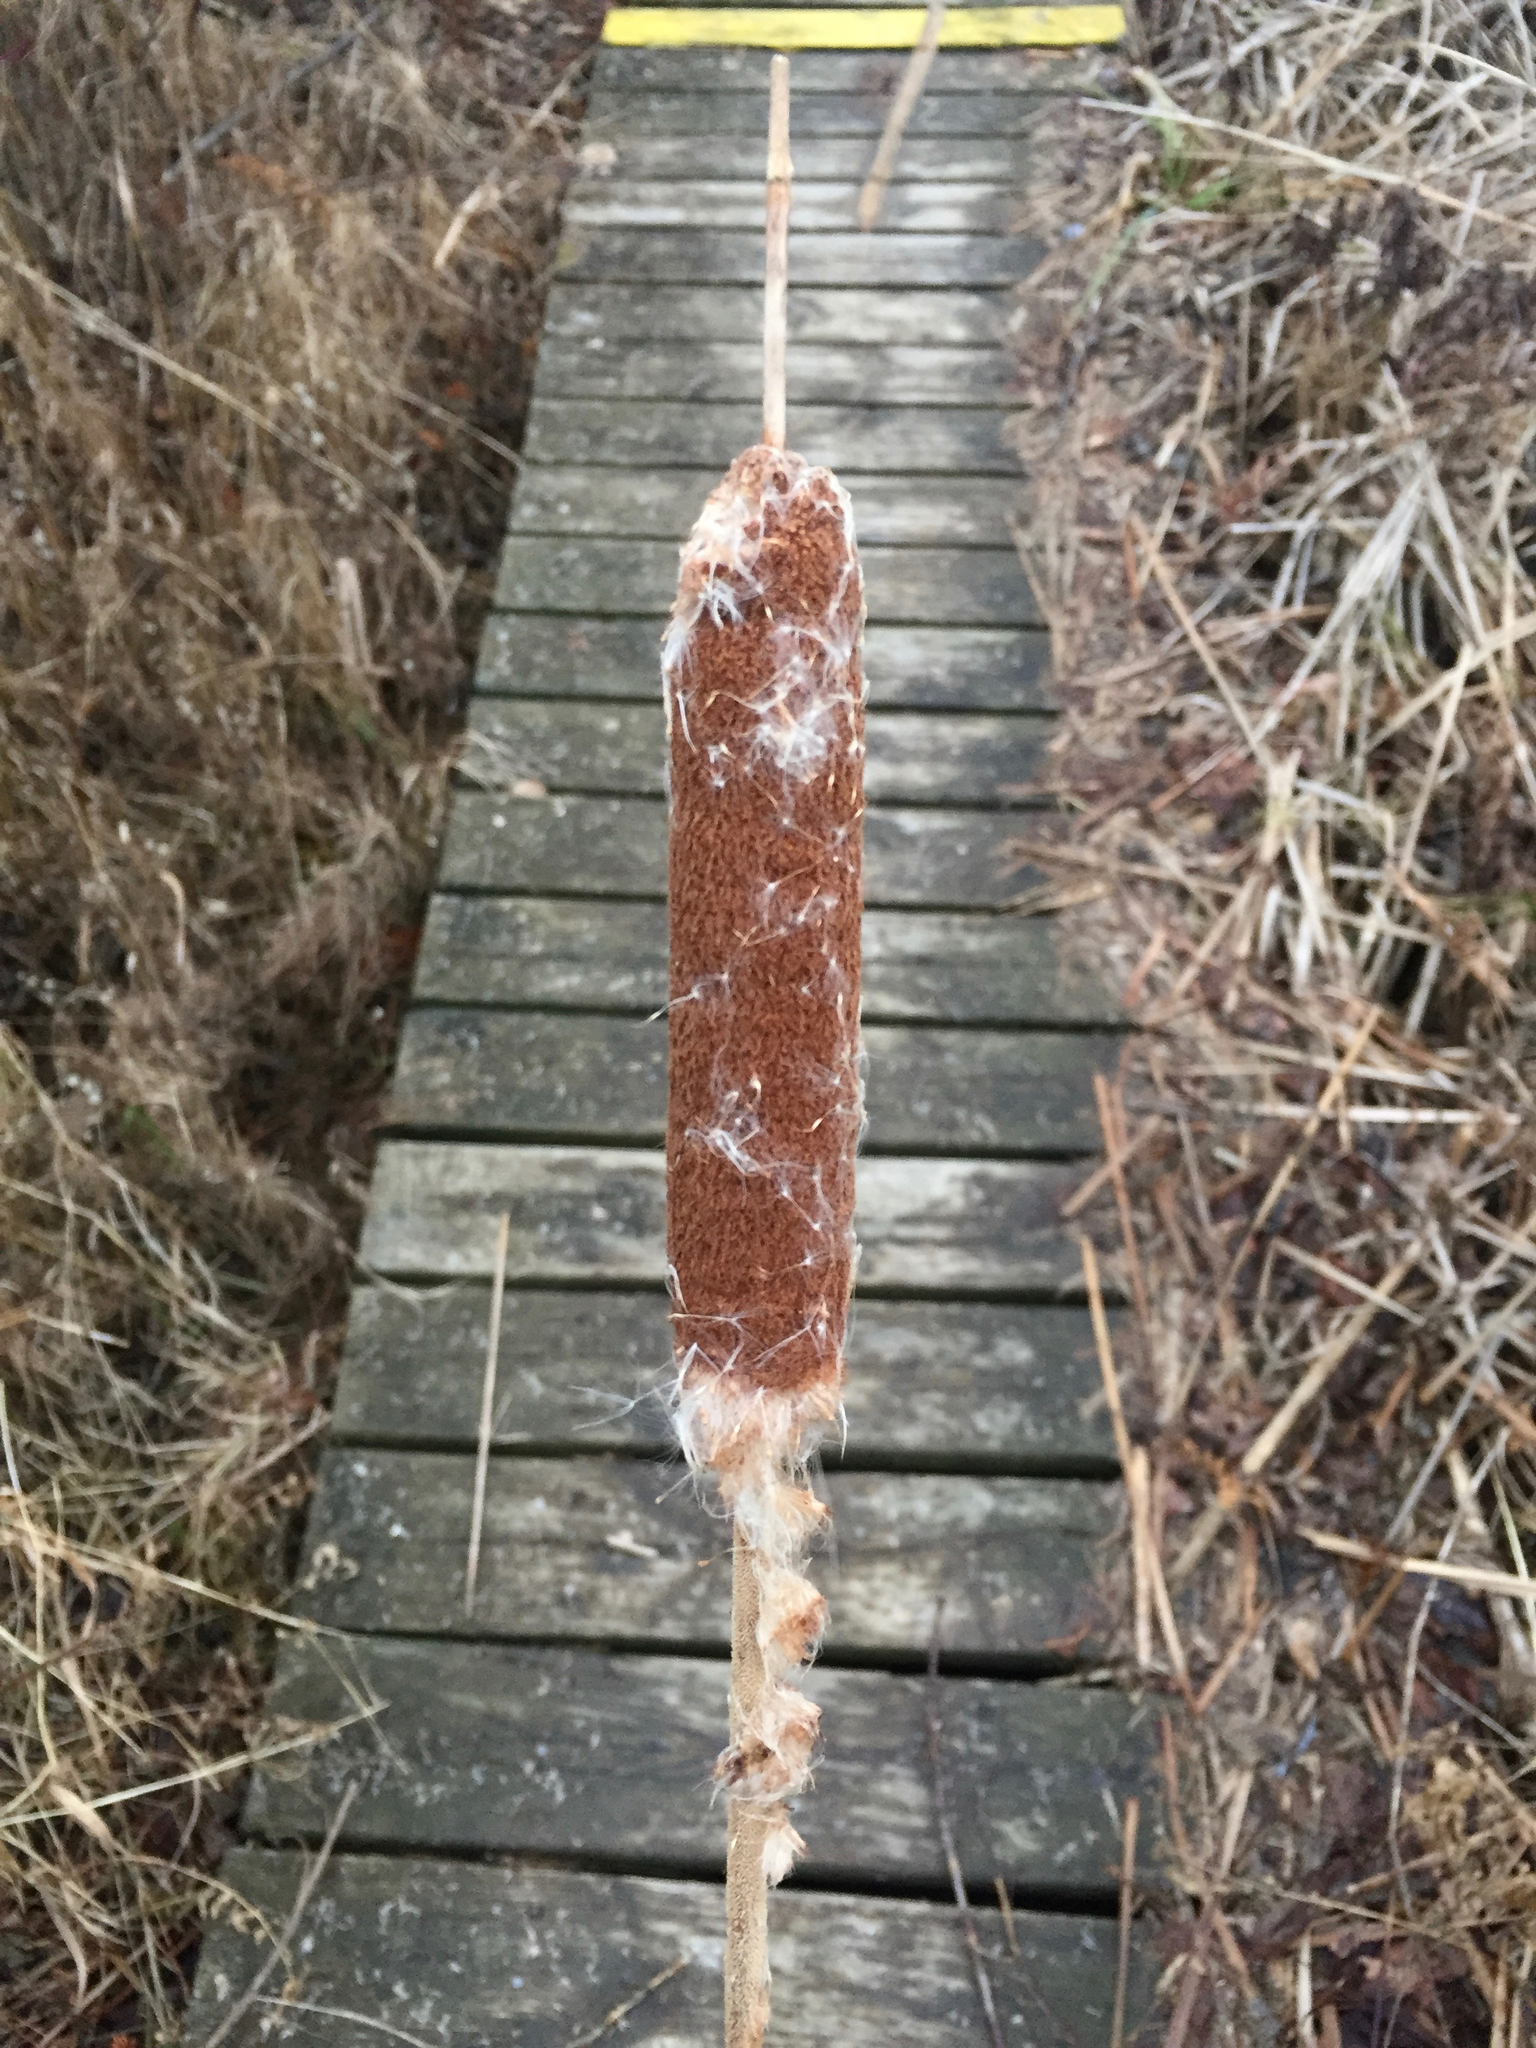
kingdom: Plantae
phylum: Tracheophyta
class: Liliopsida
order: Poales
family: Typhaceae
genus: Typha
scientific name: Typha latifolia
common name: Broadleaf cattail
